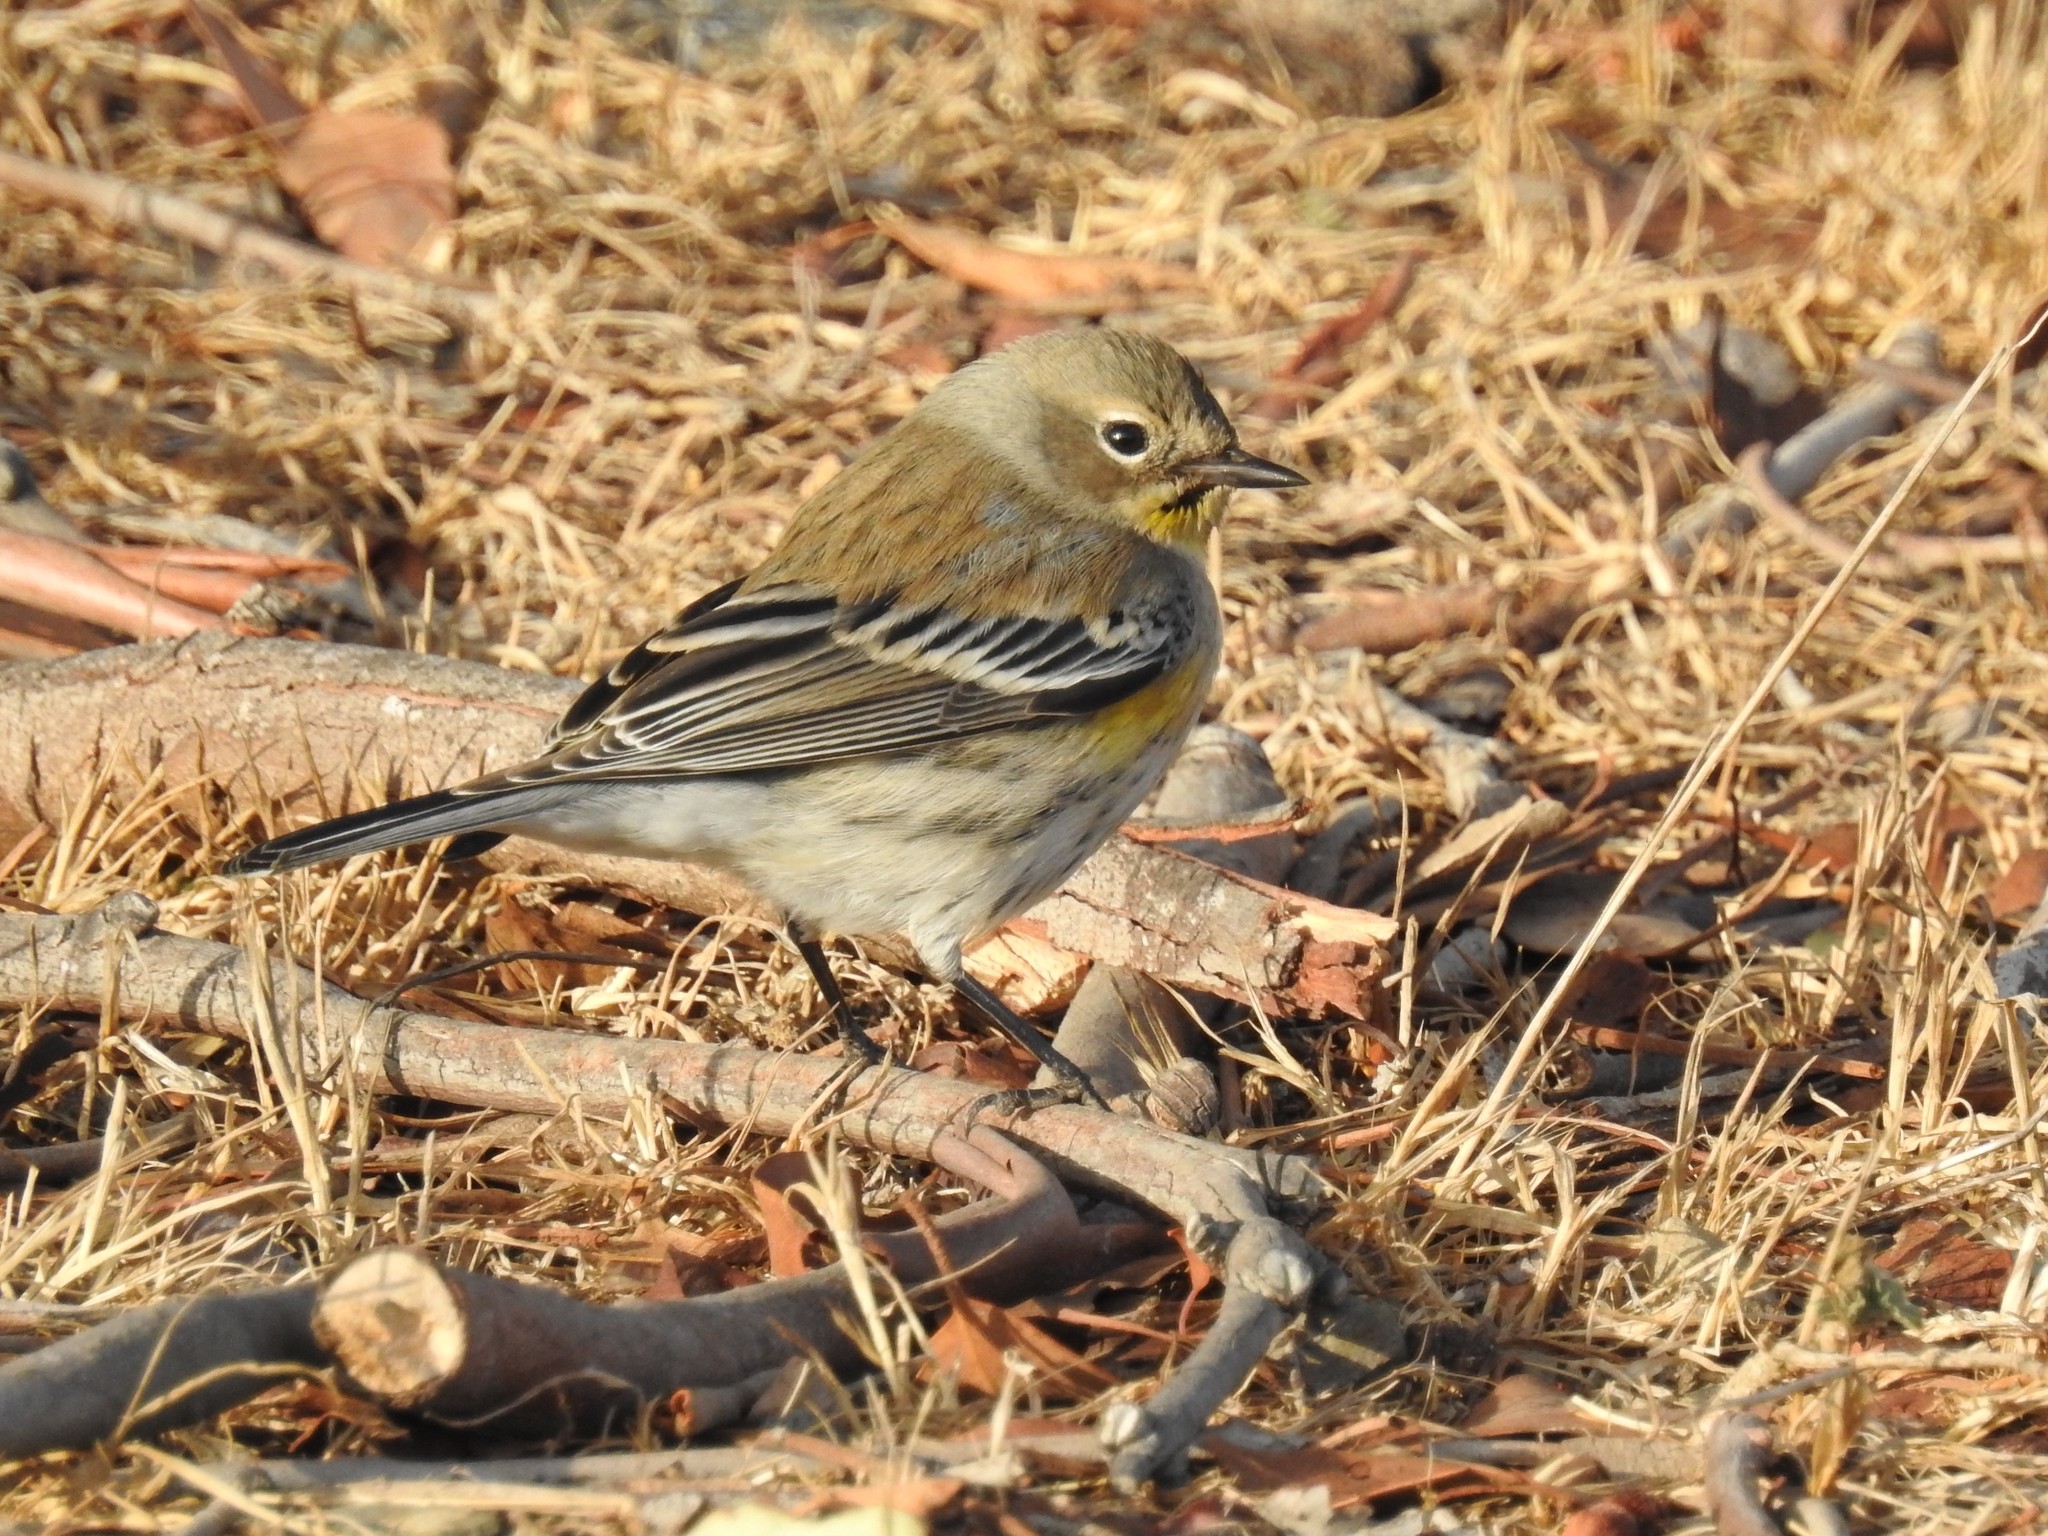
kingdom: Animalia
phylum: Chordata
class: Aves
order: Passeriformes
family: Parulidae
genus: Setophaga
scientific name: Setophaga coronata
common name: Myrtle warbler
